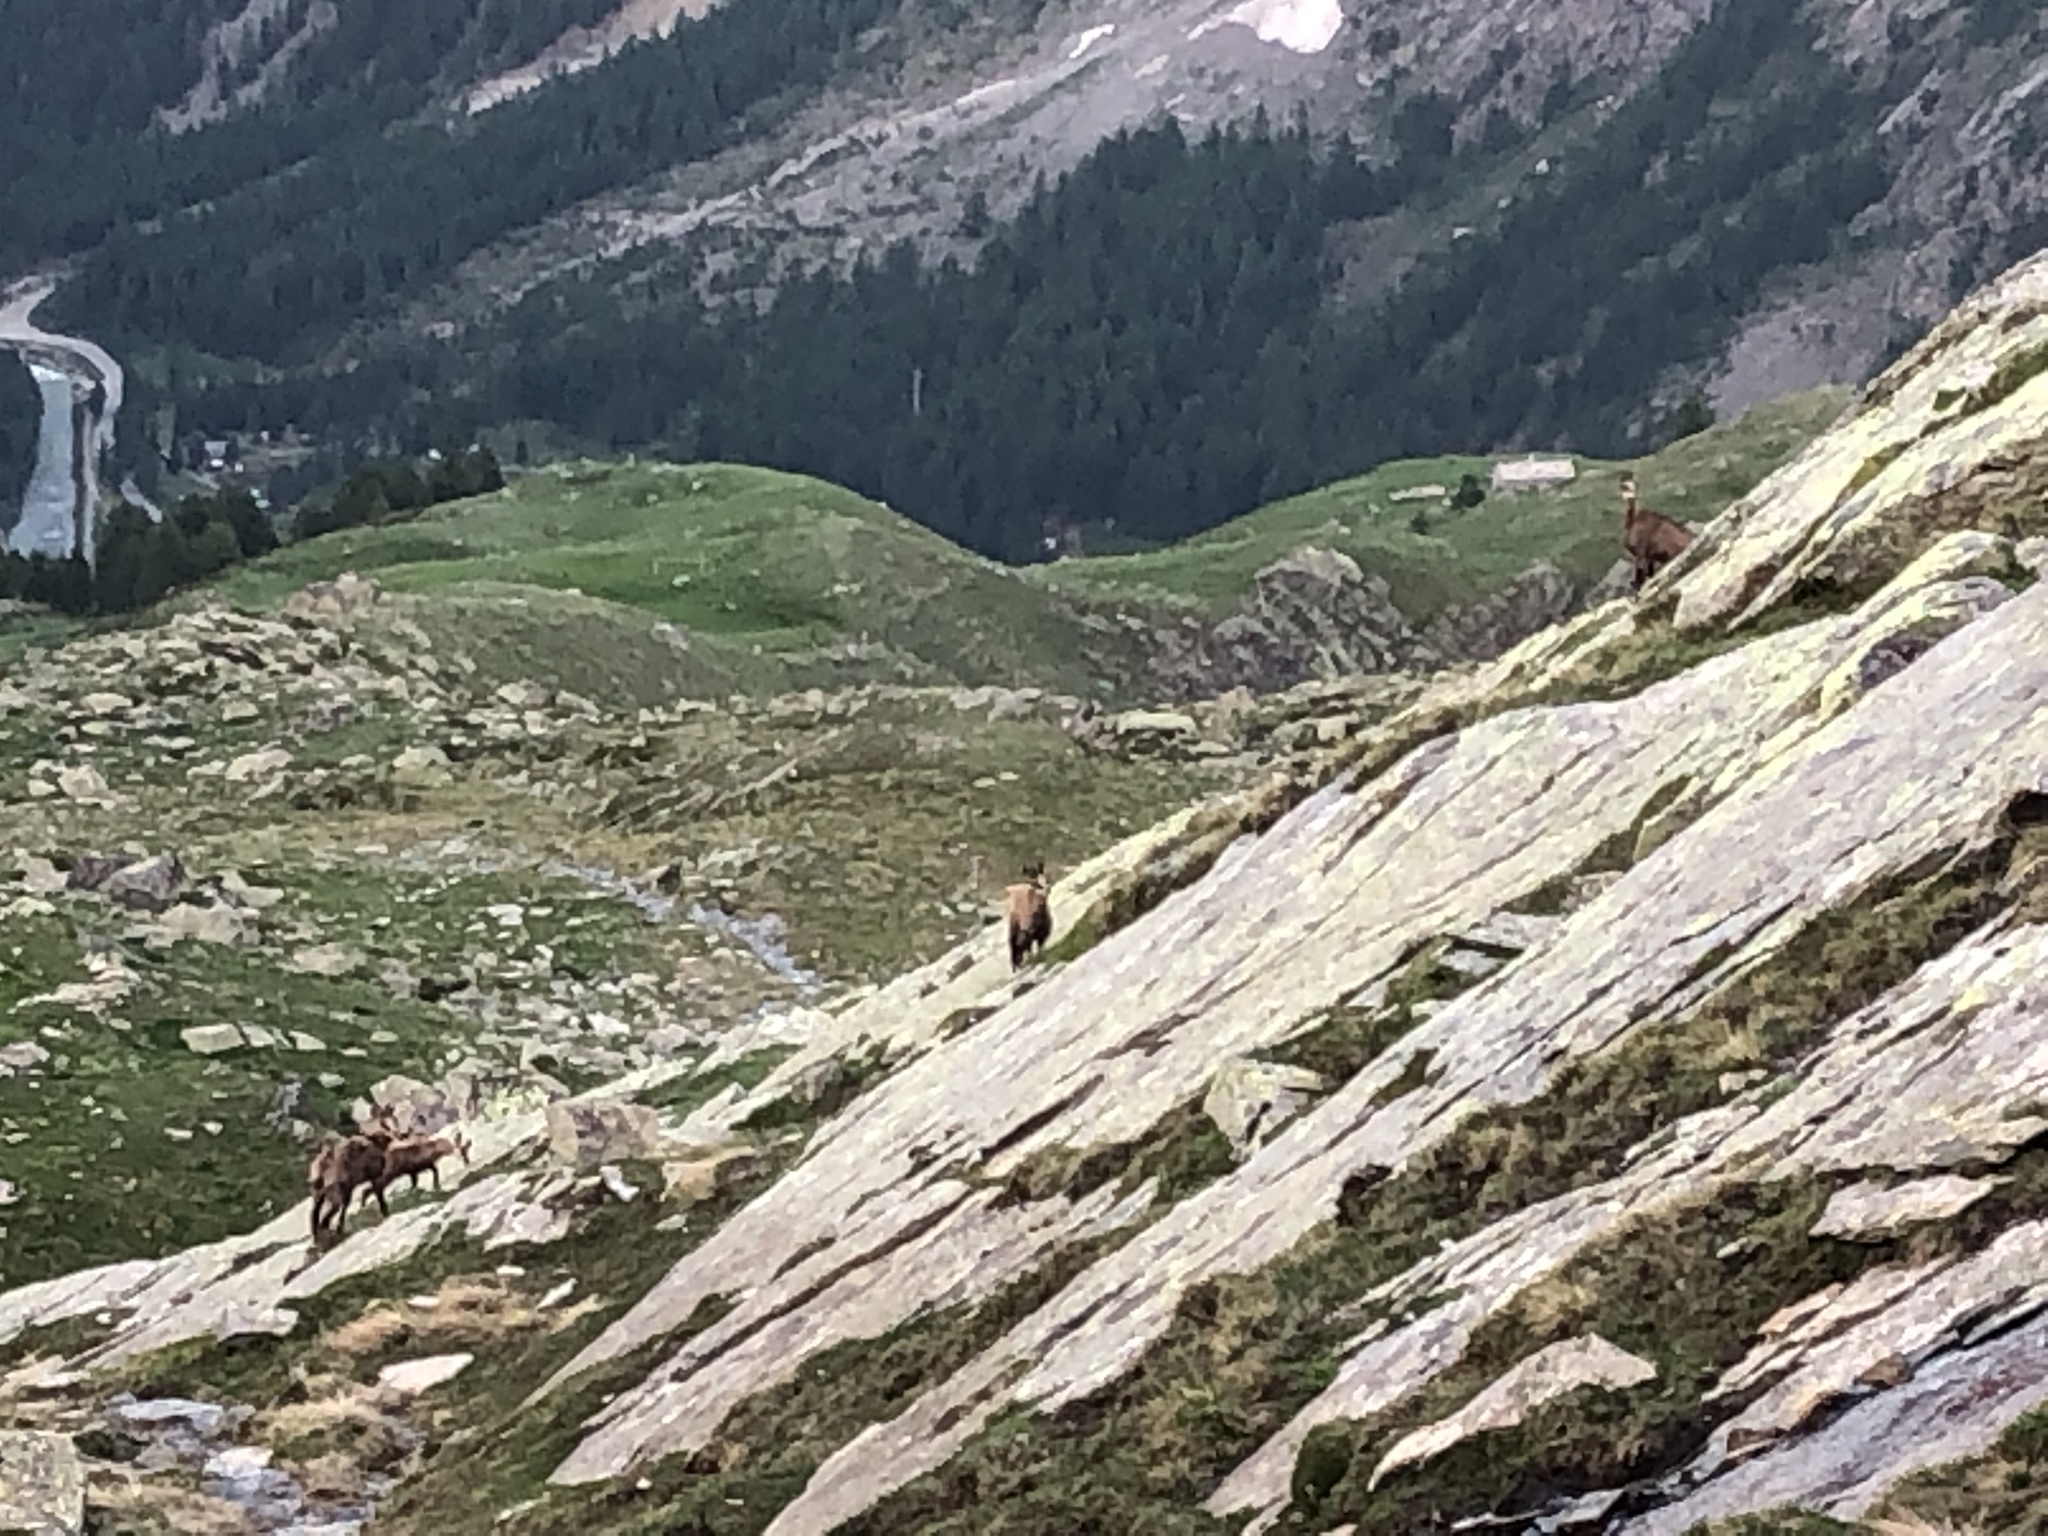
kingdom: Animalia
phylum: Chordata
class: Mammalia
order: Artiodactyla
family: Bovidae
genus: Rupicapra
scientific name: Rupicapra rupicapra
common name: Chamois
